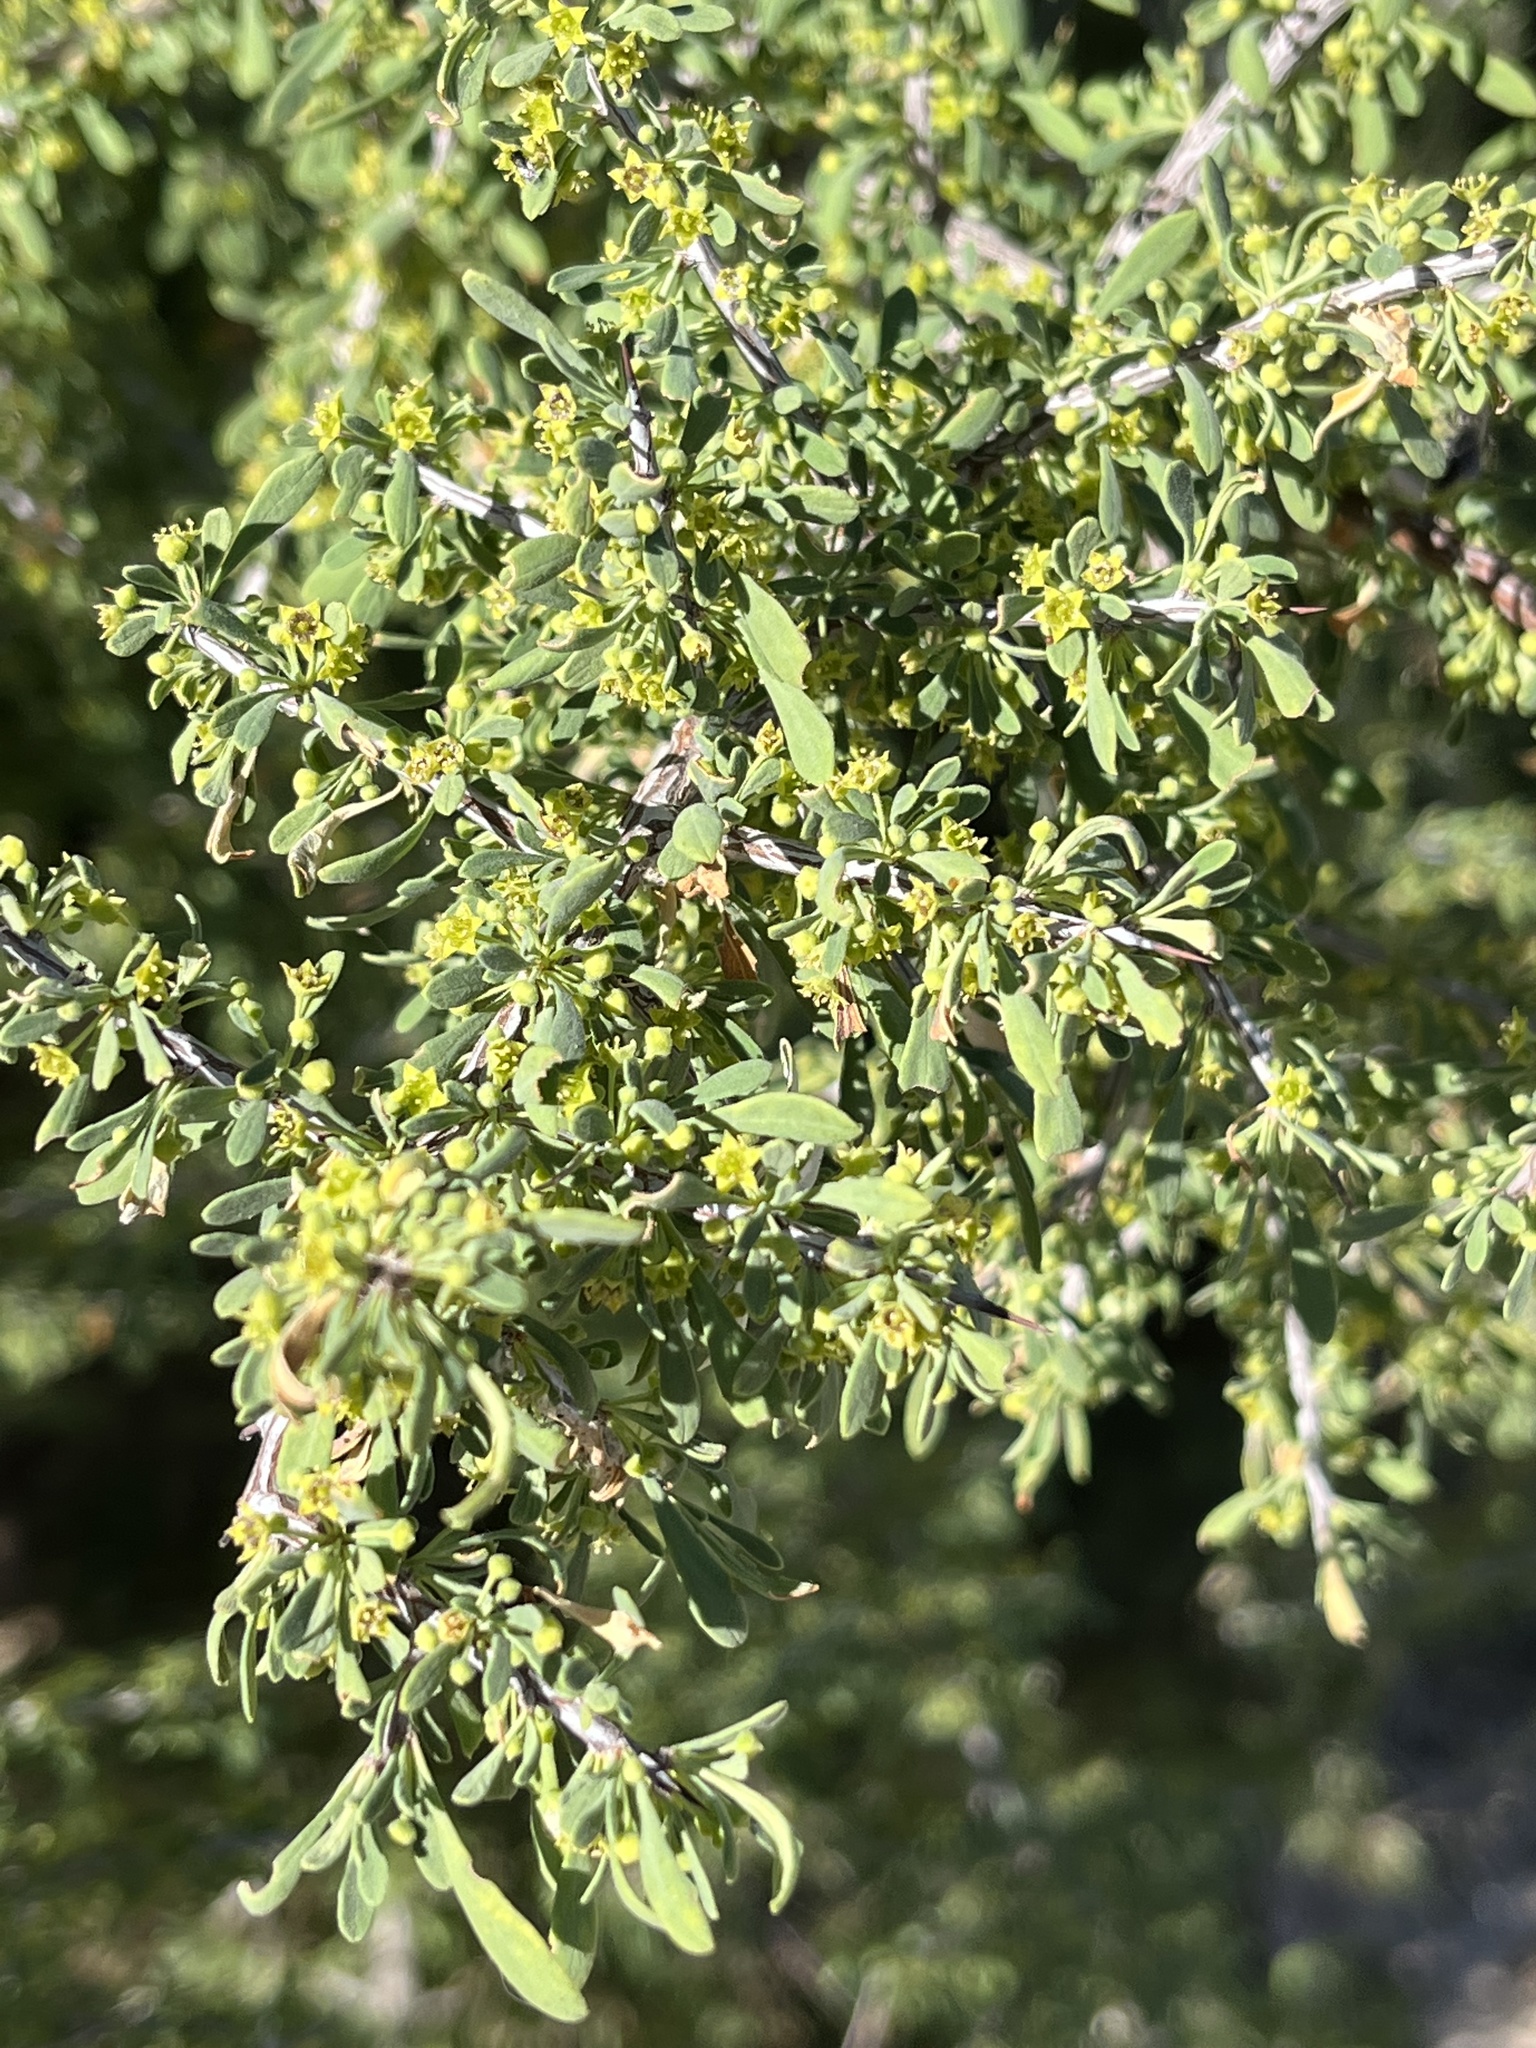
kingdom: Plantae
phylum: Tracheophyta
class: Magnoliopsida
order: Rosales
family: Rhamnaceae
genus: Condalia
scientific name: Condalia globosa
